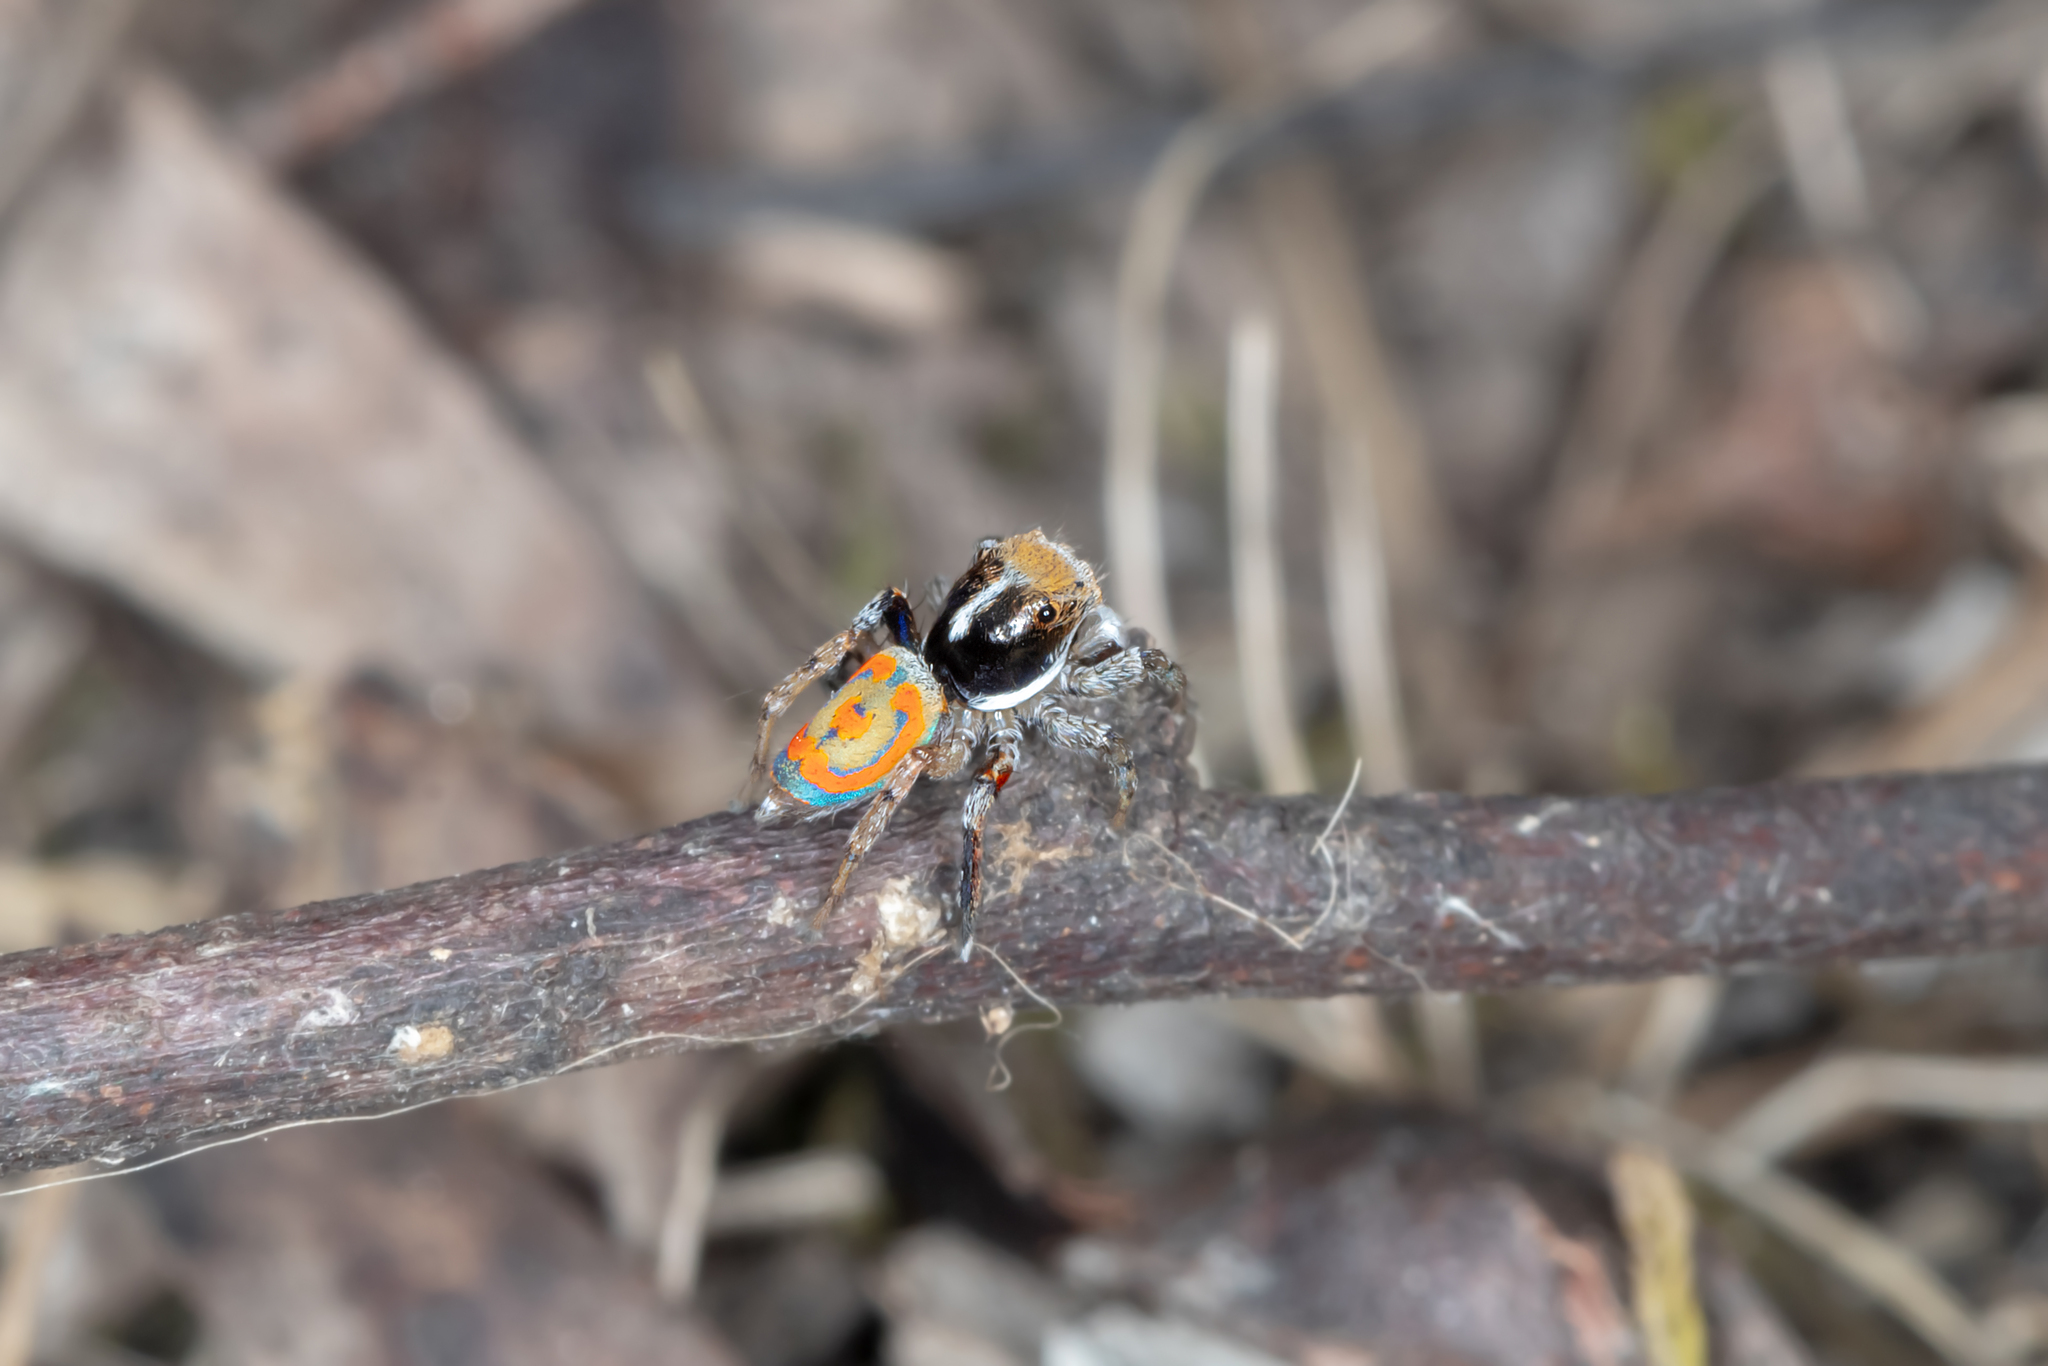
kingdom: Animalia
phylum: Arthropoda
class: Arachnida
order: Araneae
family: Salticidae
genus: Maratus
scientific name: Maratus pavonis
